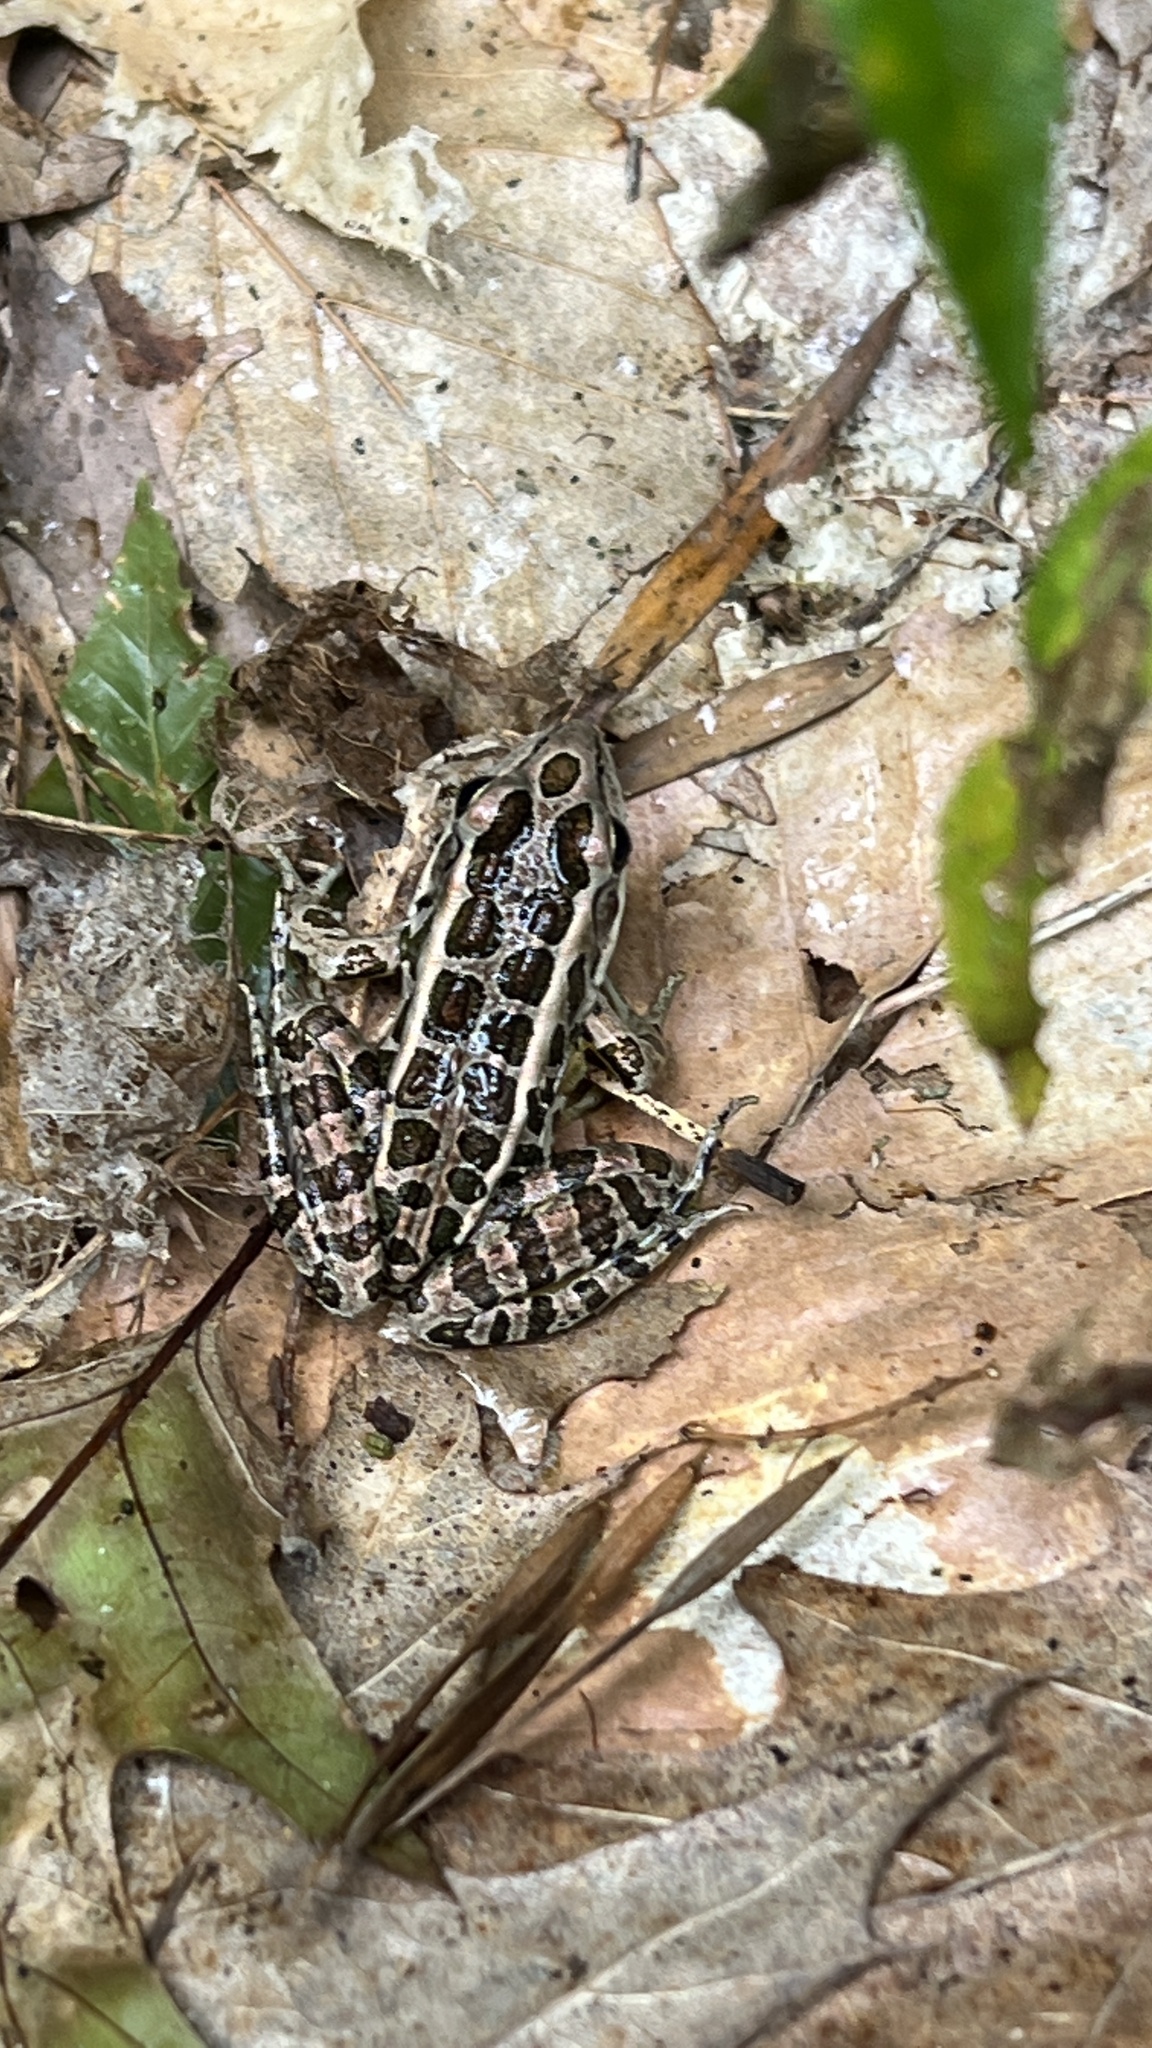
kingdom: Animalia
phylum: Chordata
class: Amphibia
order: Anura
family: Ranidae
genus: Lithobates
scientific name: Lithobates palustris
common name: Pickerel frog
